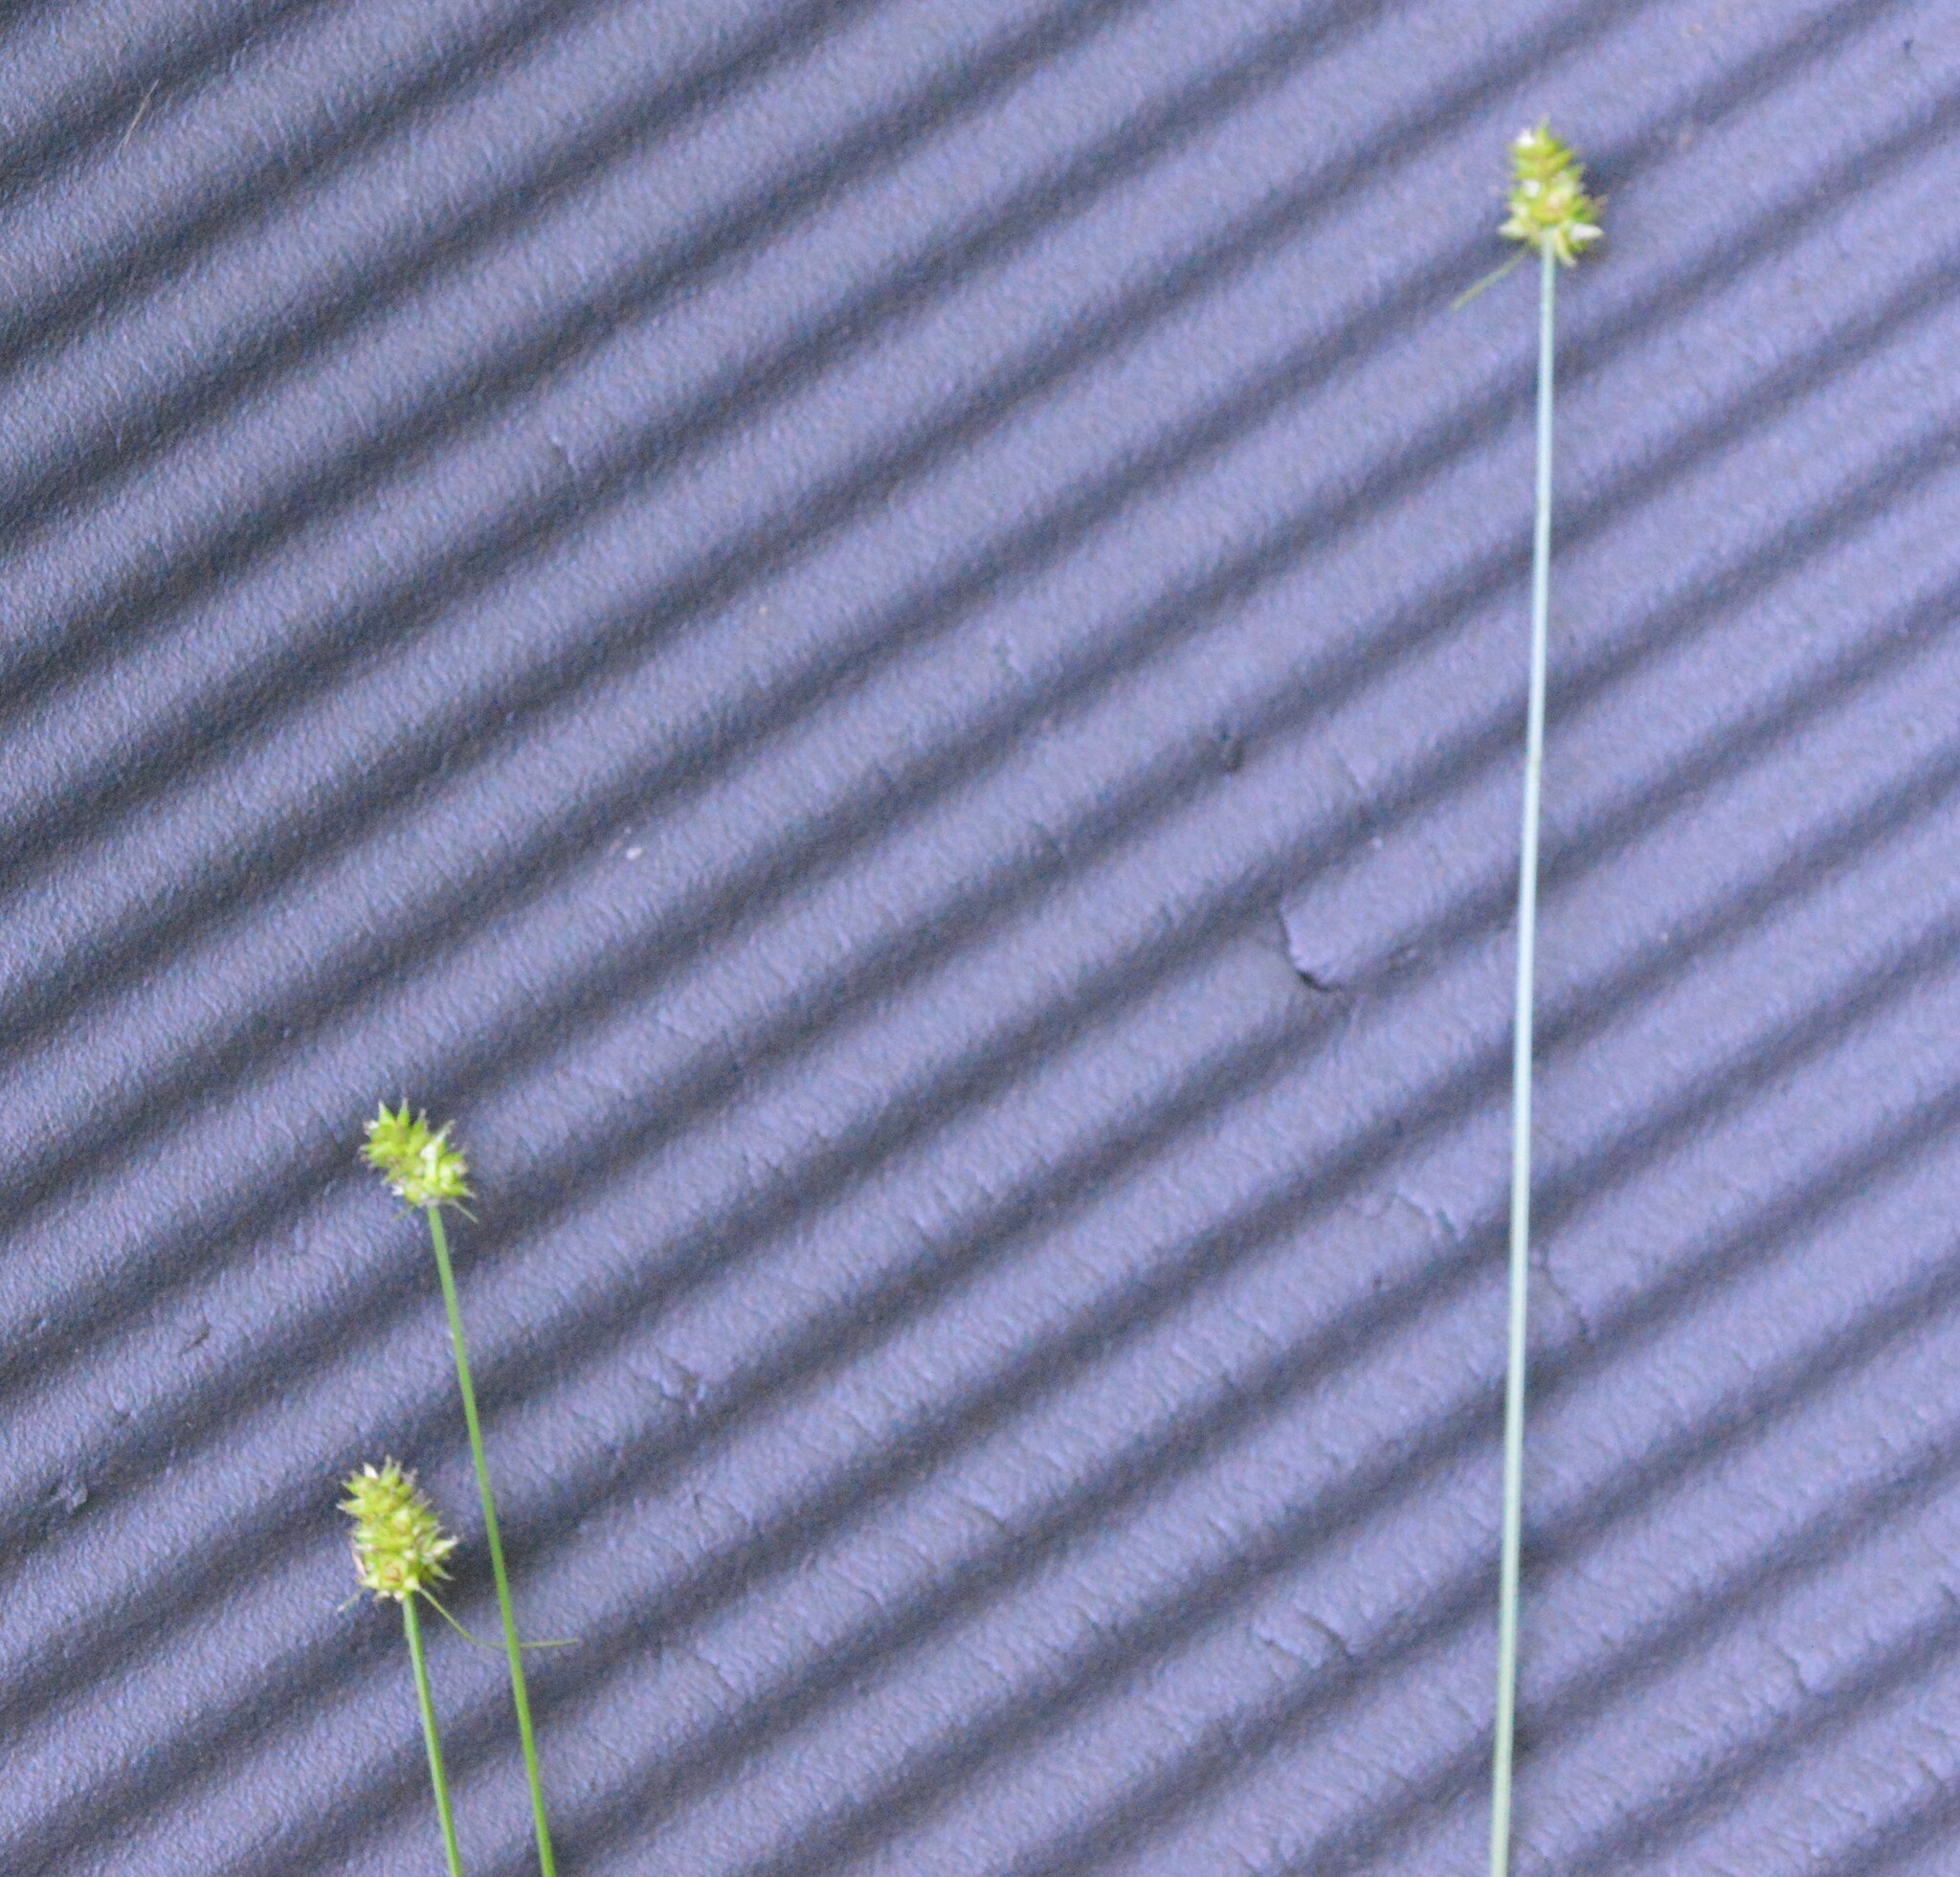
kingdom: Plantae
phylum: Tracheophyta
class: Liliopsida
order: Poales
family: Cyperaceae
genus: Carex
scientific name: Carex leavenworthii
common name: Leavenworth's bracted sedge
